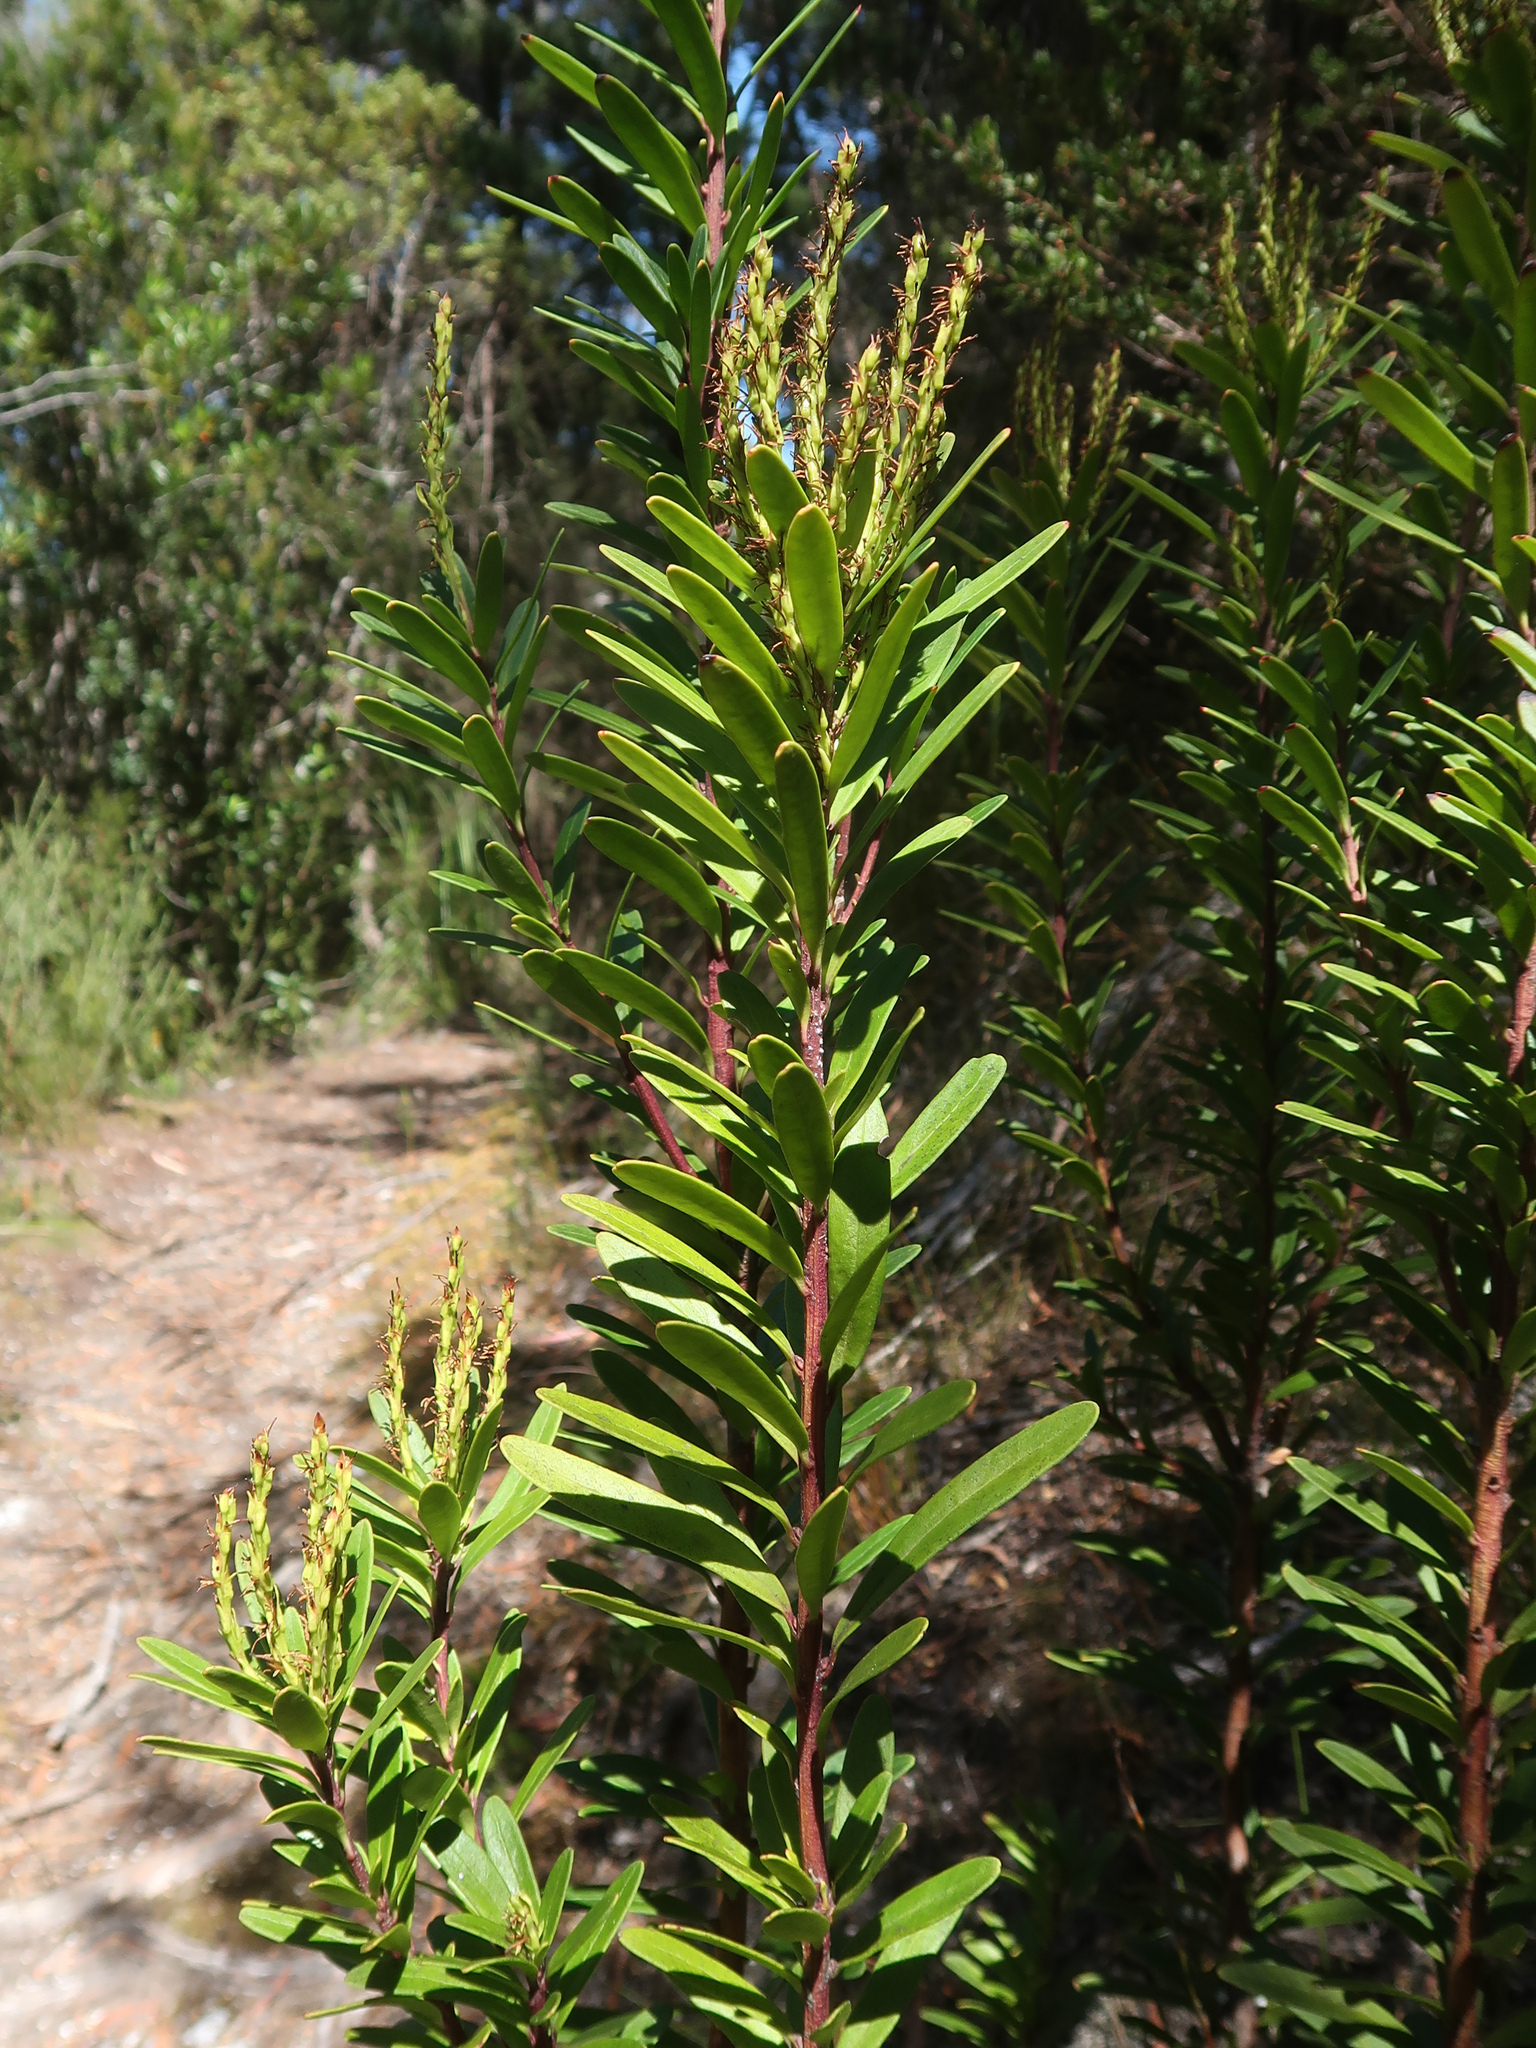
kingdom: Plantae
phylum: Tracheophyta
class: Magnoliopsida
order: Proteales
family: Proteaceae
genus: Agastachys
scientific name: Agastachys odorata
